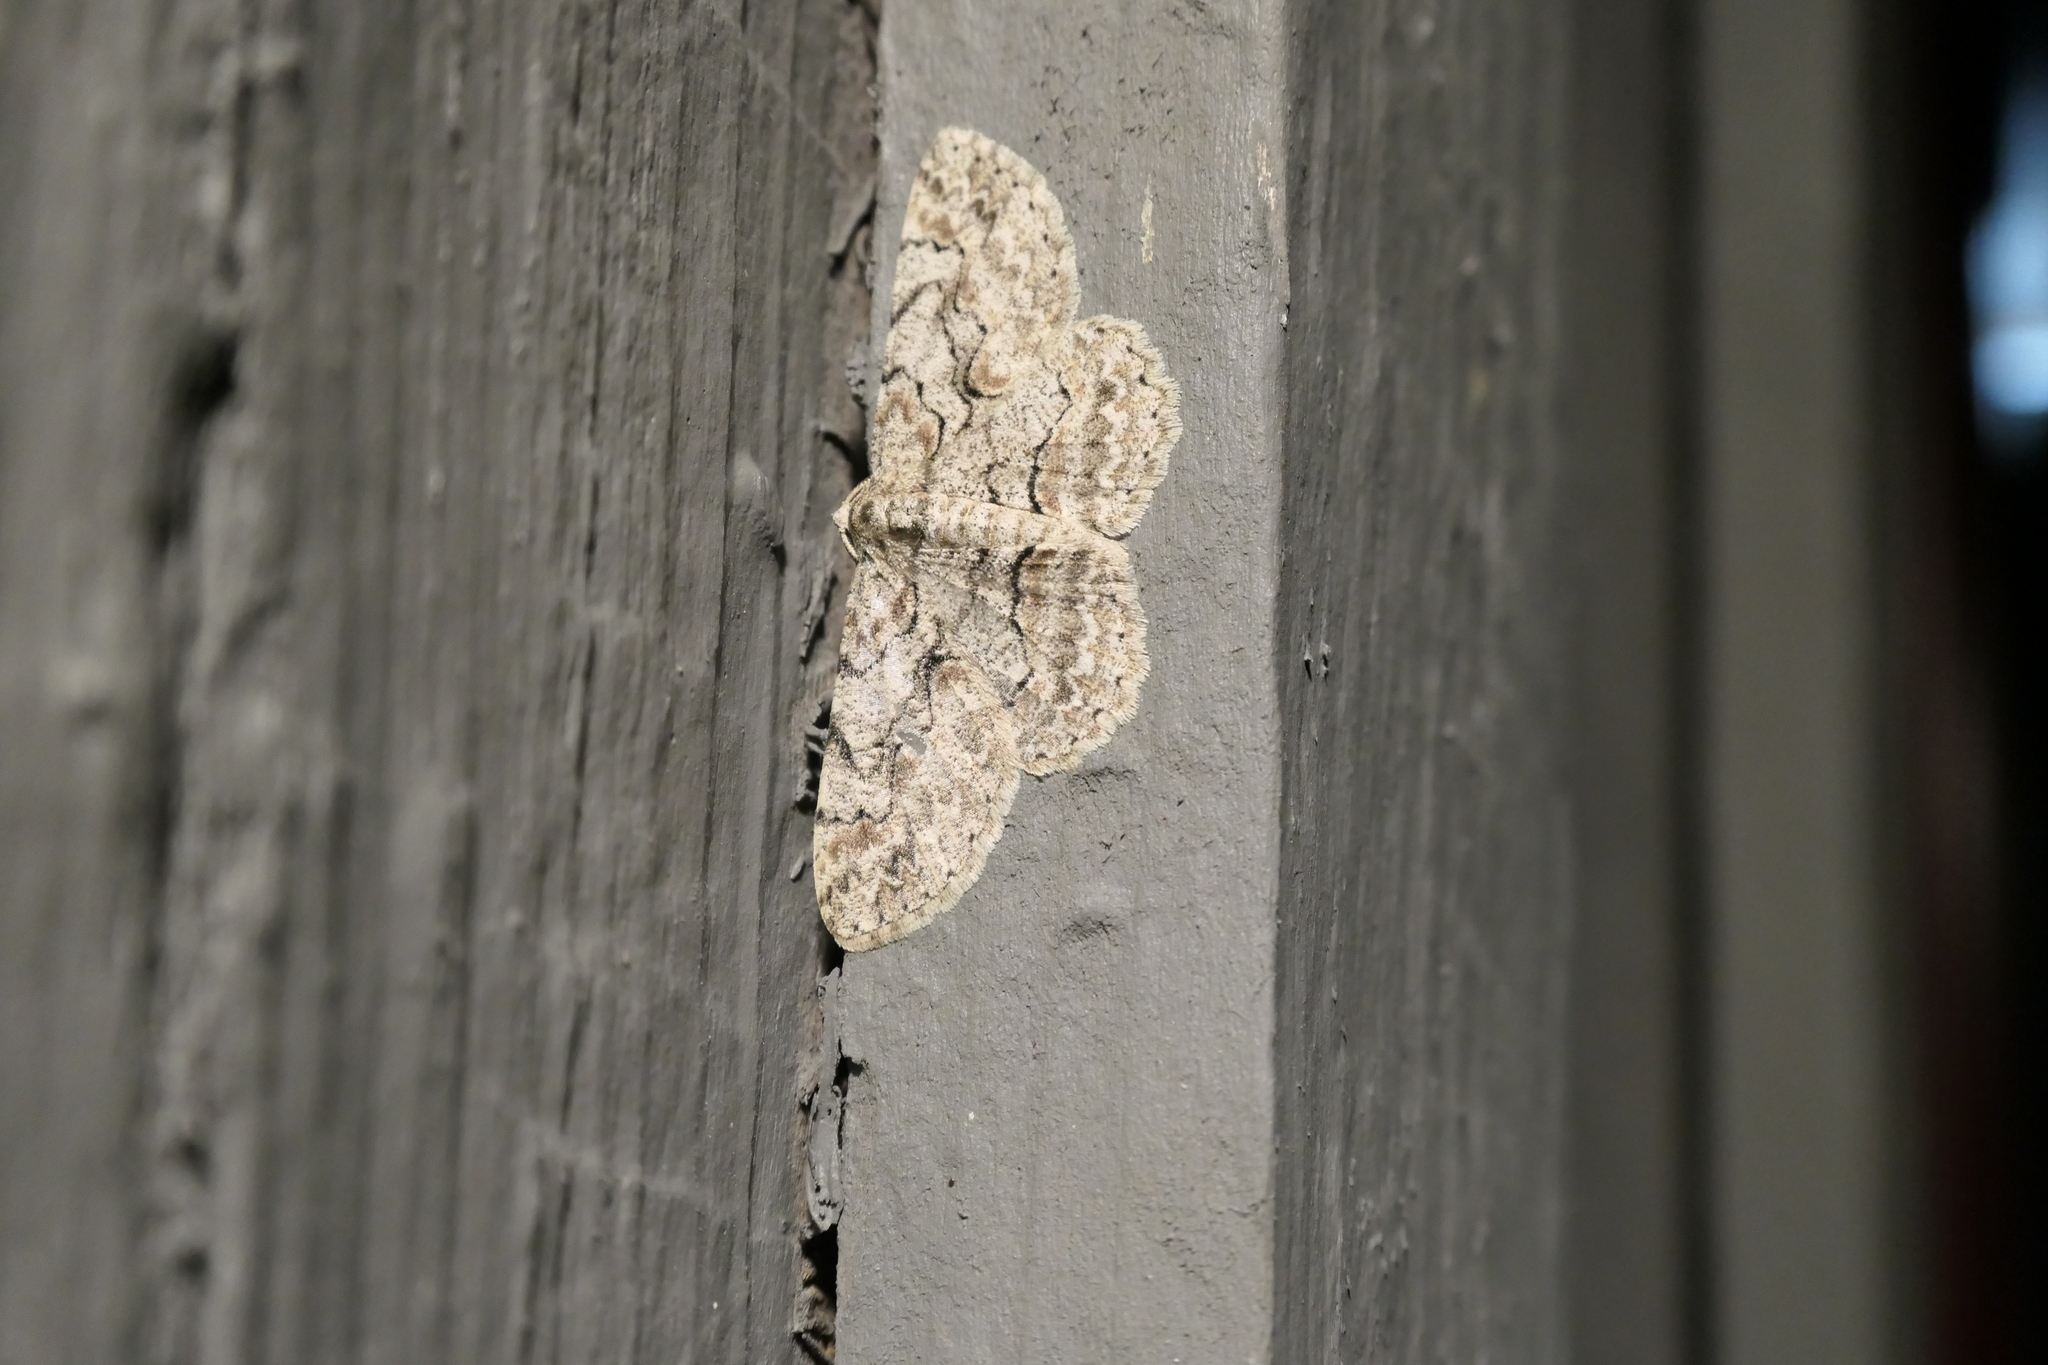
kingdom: Animalia
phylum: Arthropoda
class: Insecta
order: Lepidoptera
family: Geometridae
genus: Iridopsis
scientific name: Iridopsis defectaria
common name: Brown-shaded gray
